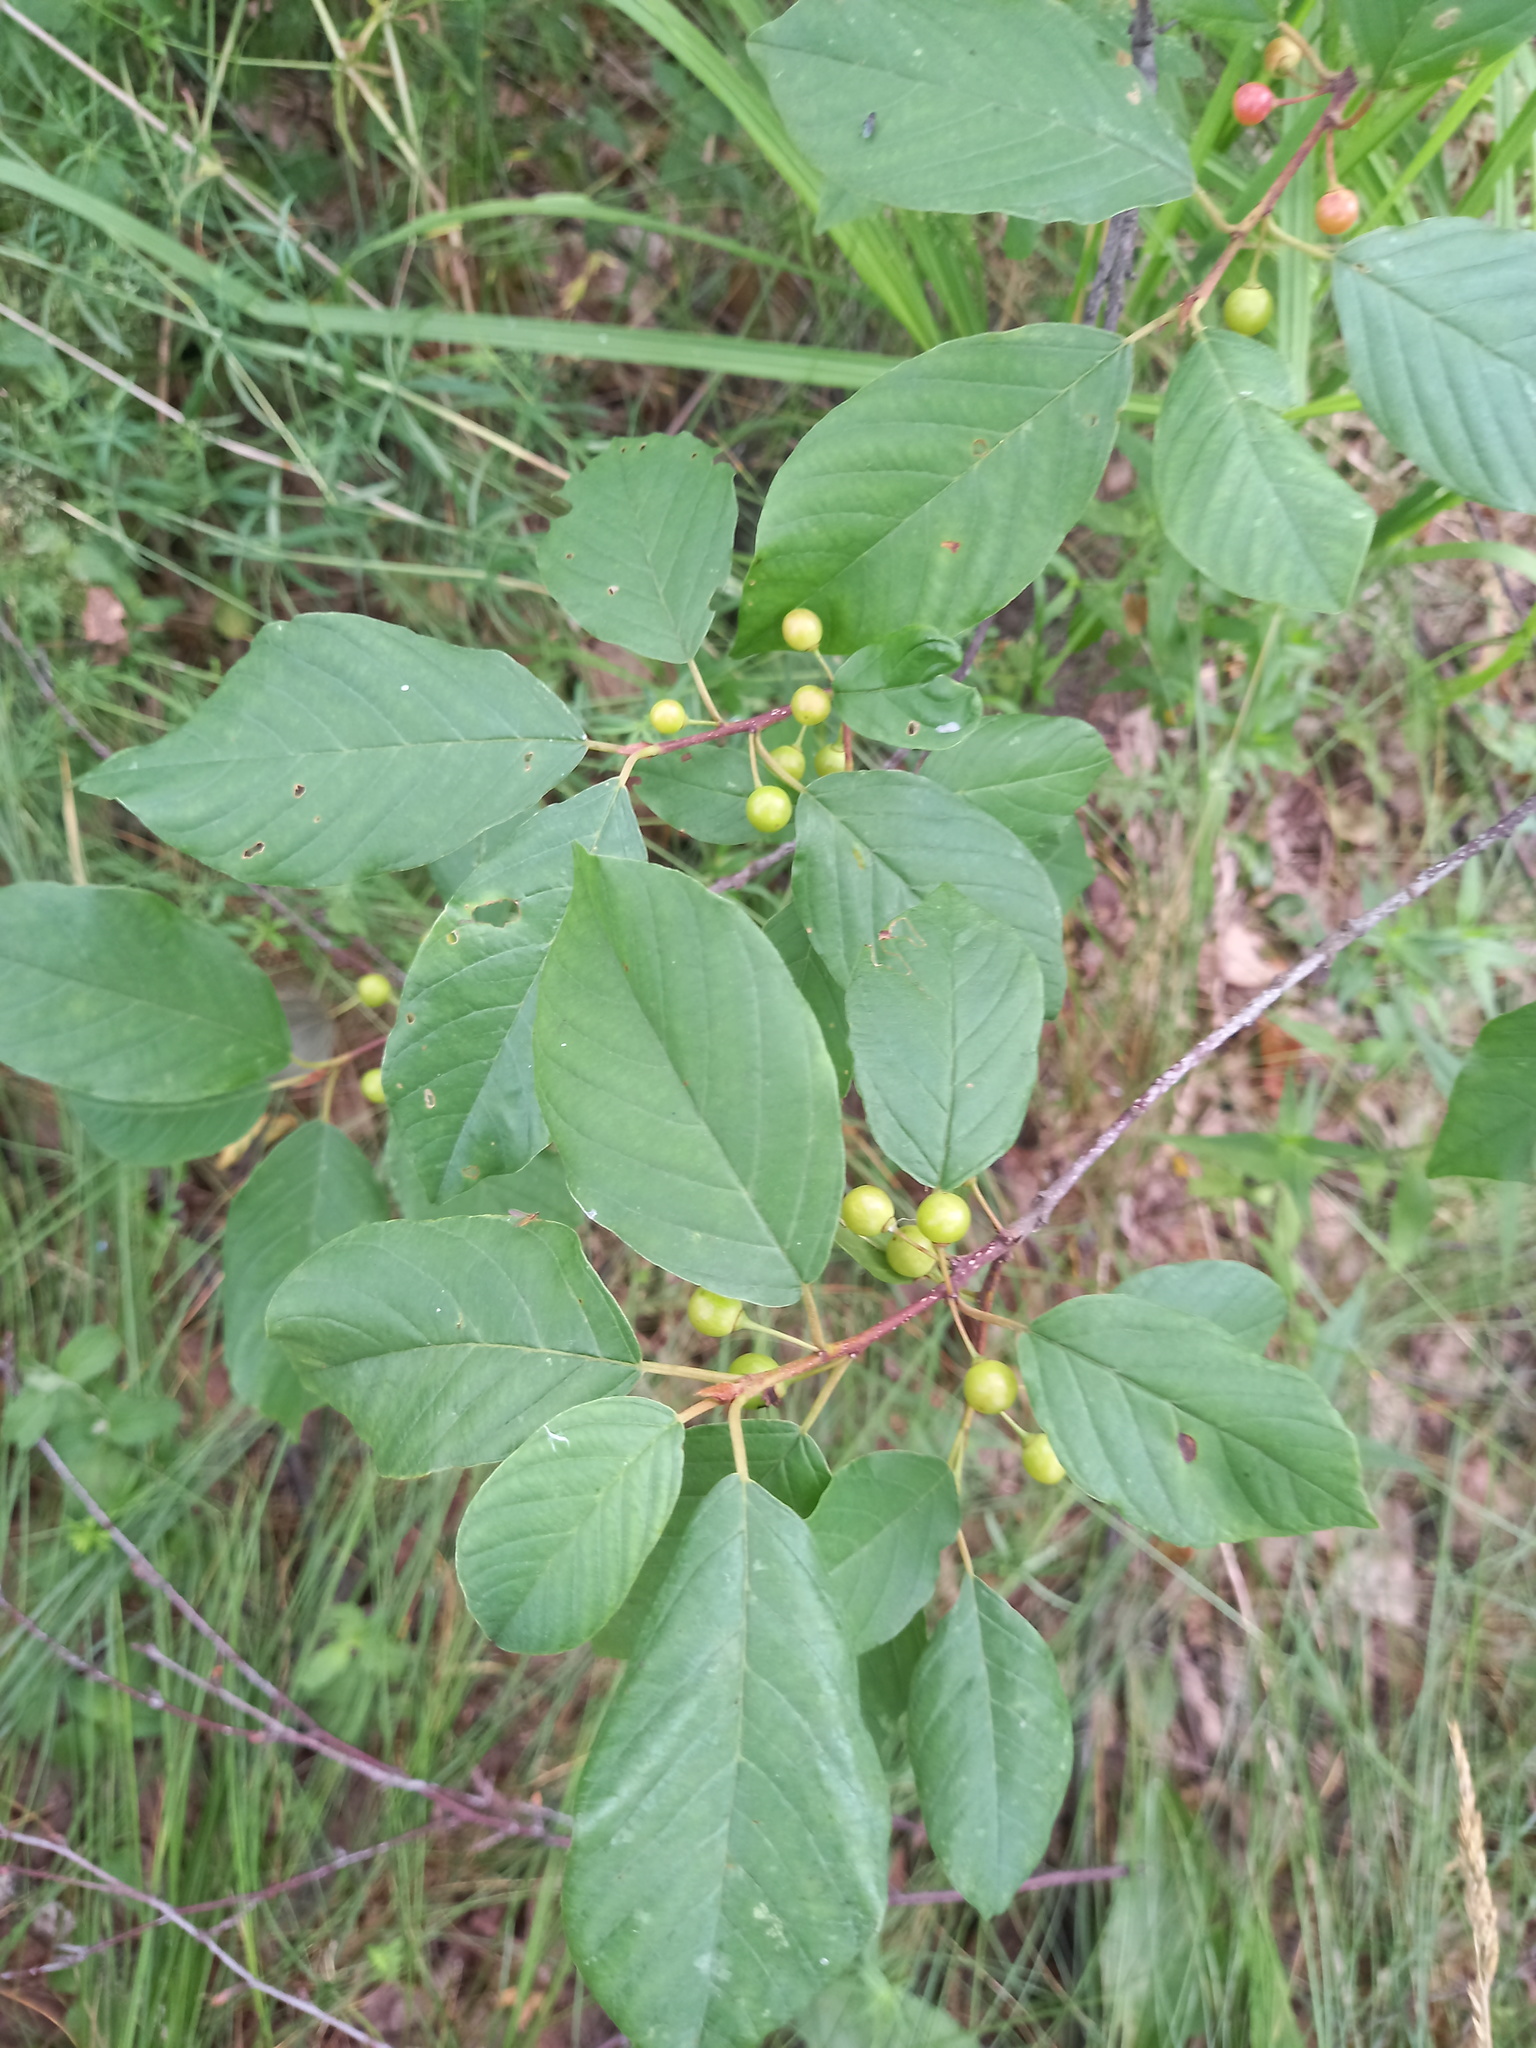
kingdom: Plantae
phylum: Tracheophyta
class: Magnoliopsida
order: Rosales
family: Rhamnaceae
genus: Frangula
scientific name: Frangula alnus
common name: Alder buckthorn
